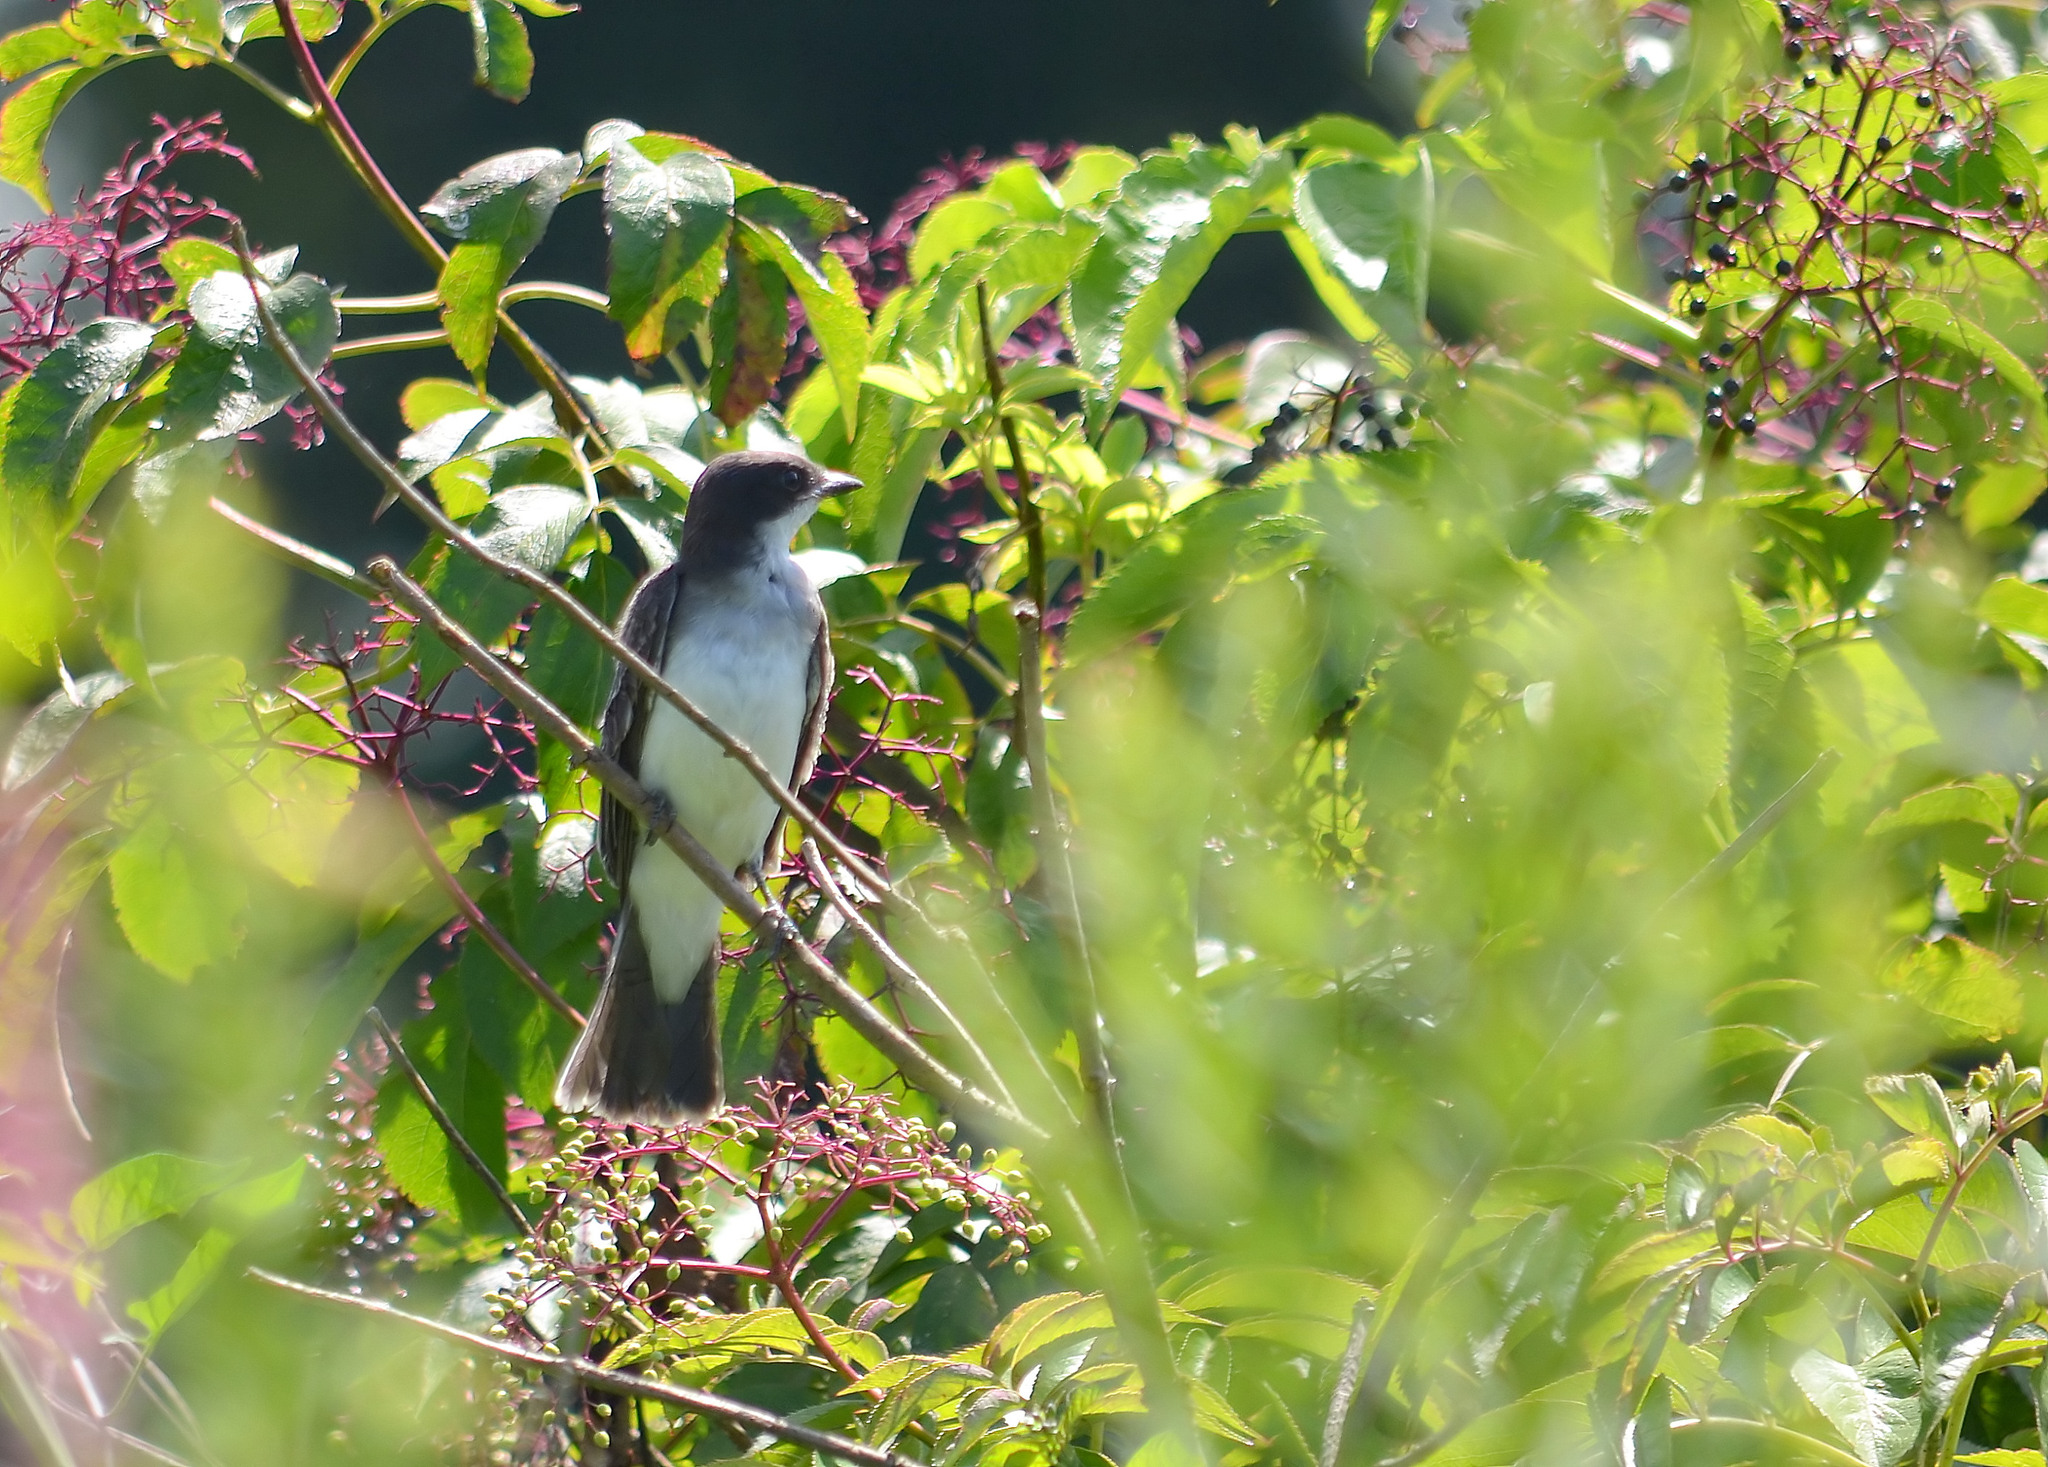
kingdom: Animalia
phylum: Chordata
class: Aves
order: Passeriformes
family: Tyrannidae
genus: Tyrannus
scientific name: Tyrannus tyrannus
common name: Eastern kingbird
